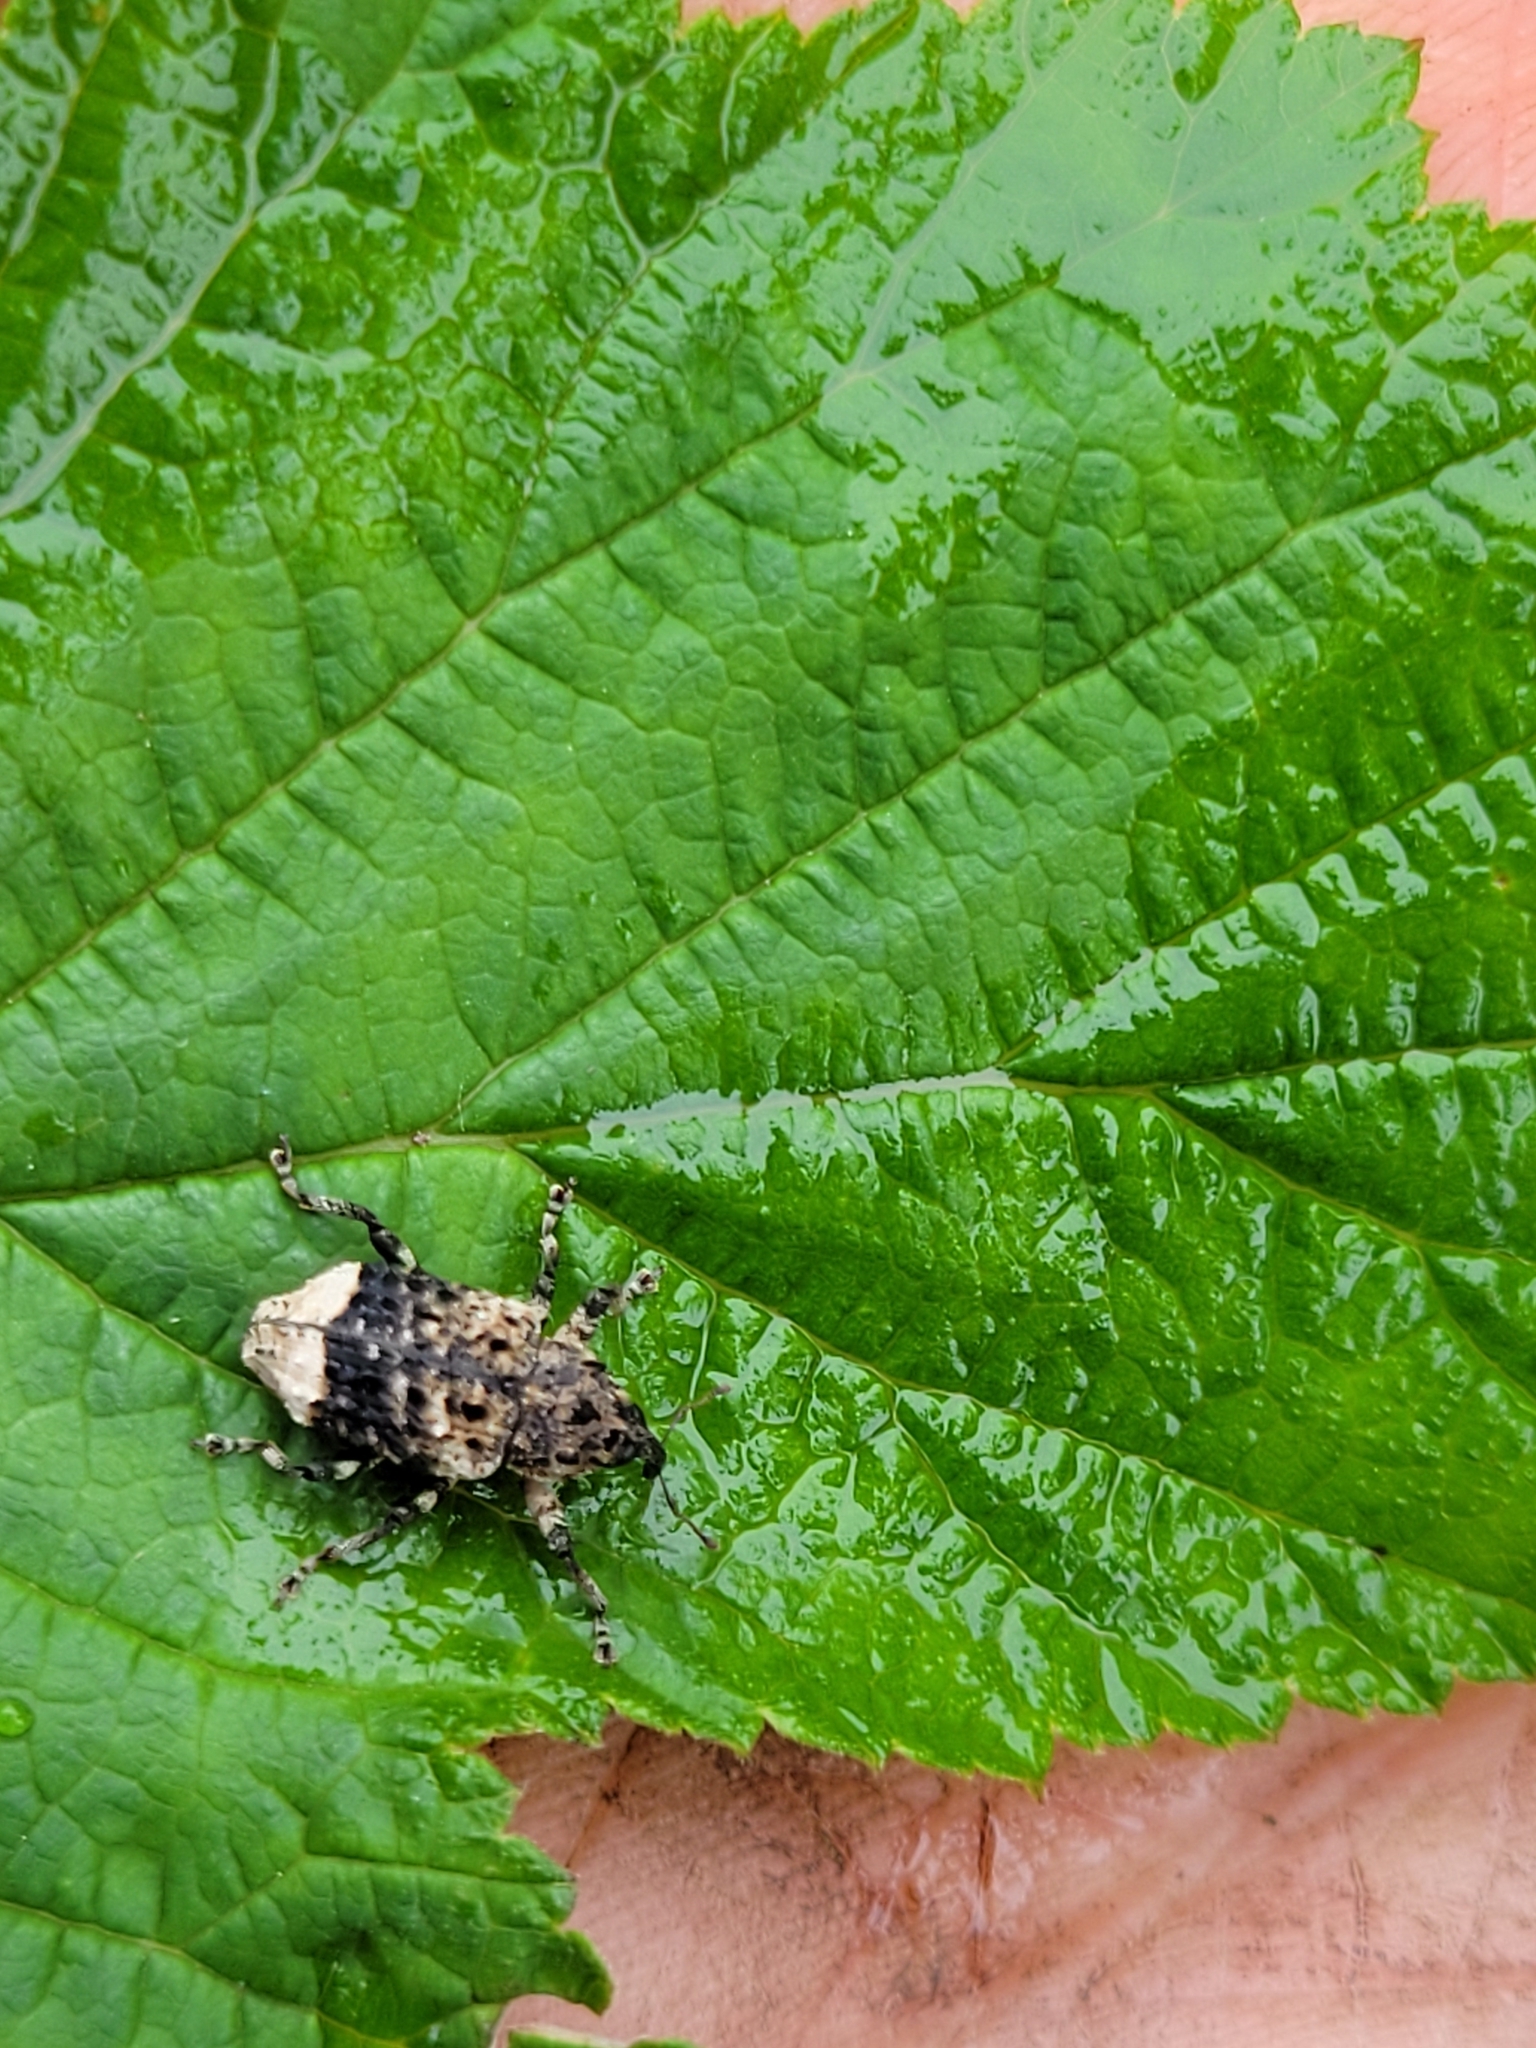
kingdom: Animalia
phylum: Arthropoda
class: Insecta
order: Coleoptera
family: Curculionidae
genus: Cryptorhynchus
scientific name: Cryptorhynchus lapathi
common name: Weevil
